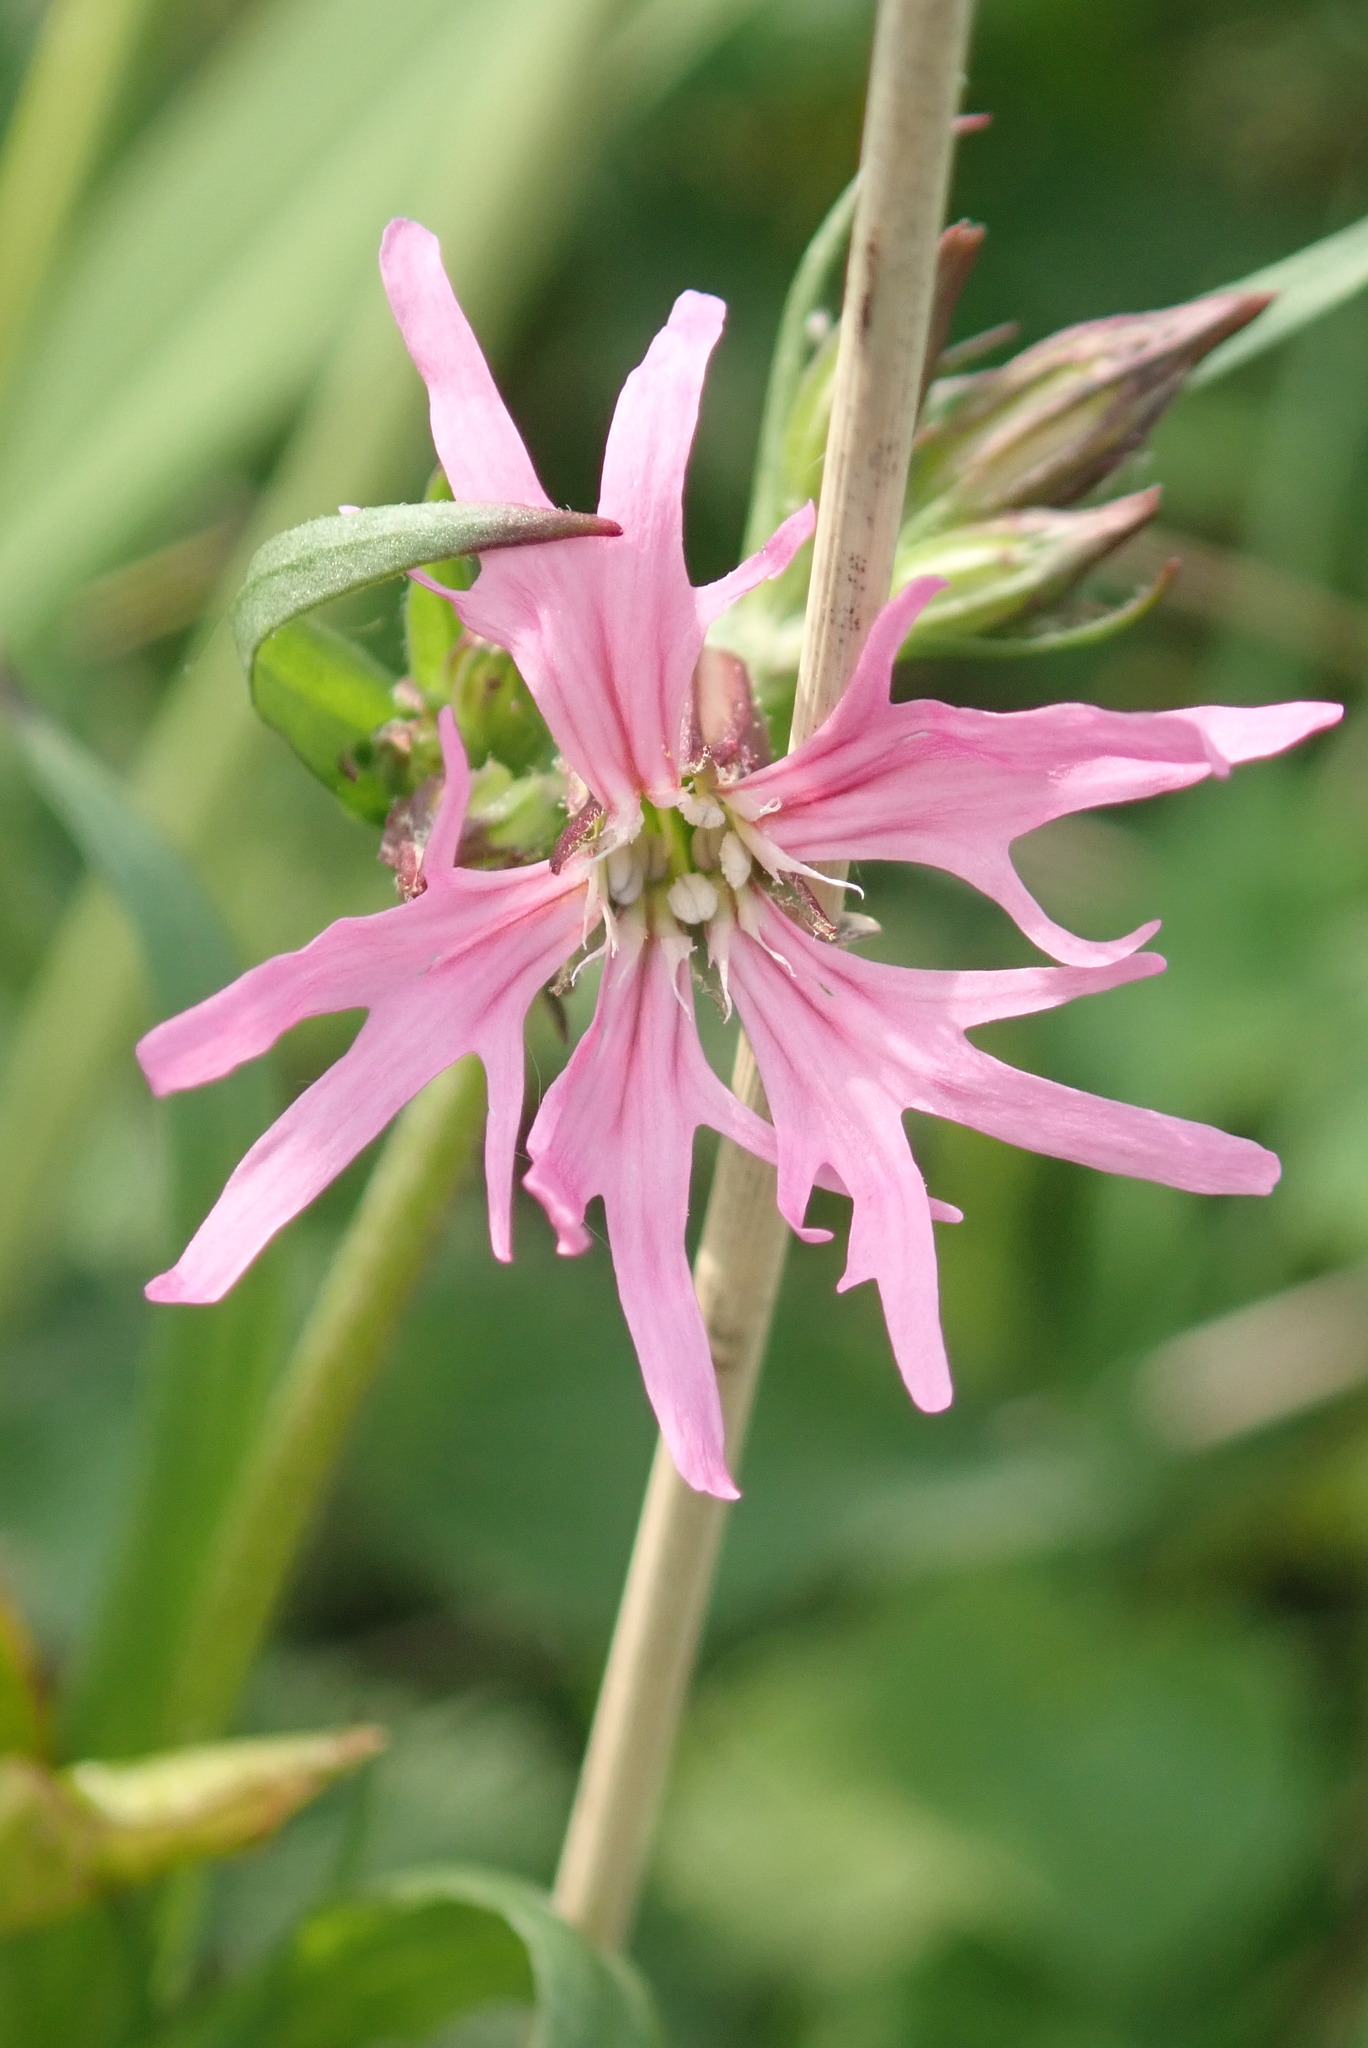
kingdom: Plantae
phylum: Tracheophyta
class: Magnoliopsida
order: Caryophyllales
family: Caryophyllaceae
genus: Silene
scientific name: Silene flos-cuculi
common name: Ragged-robin
